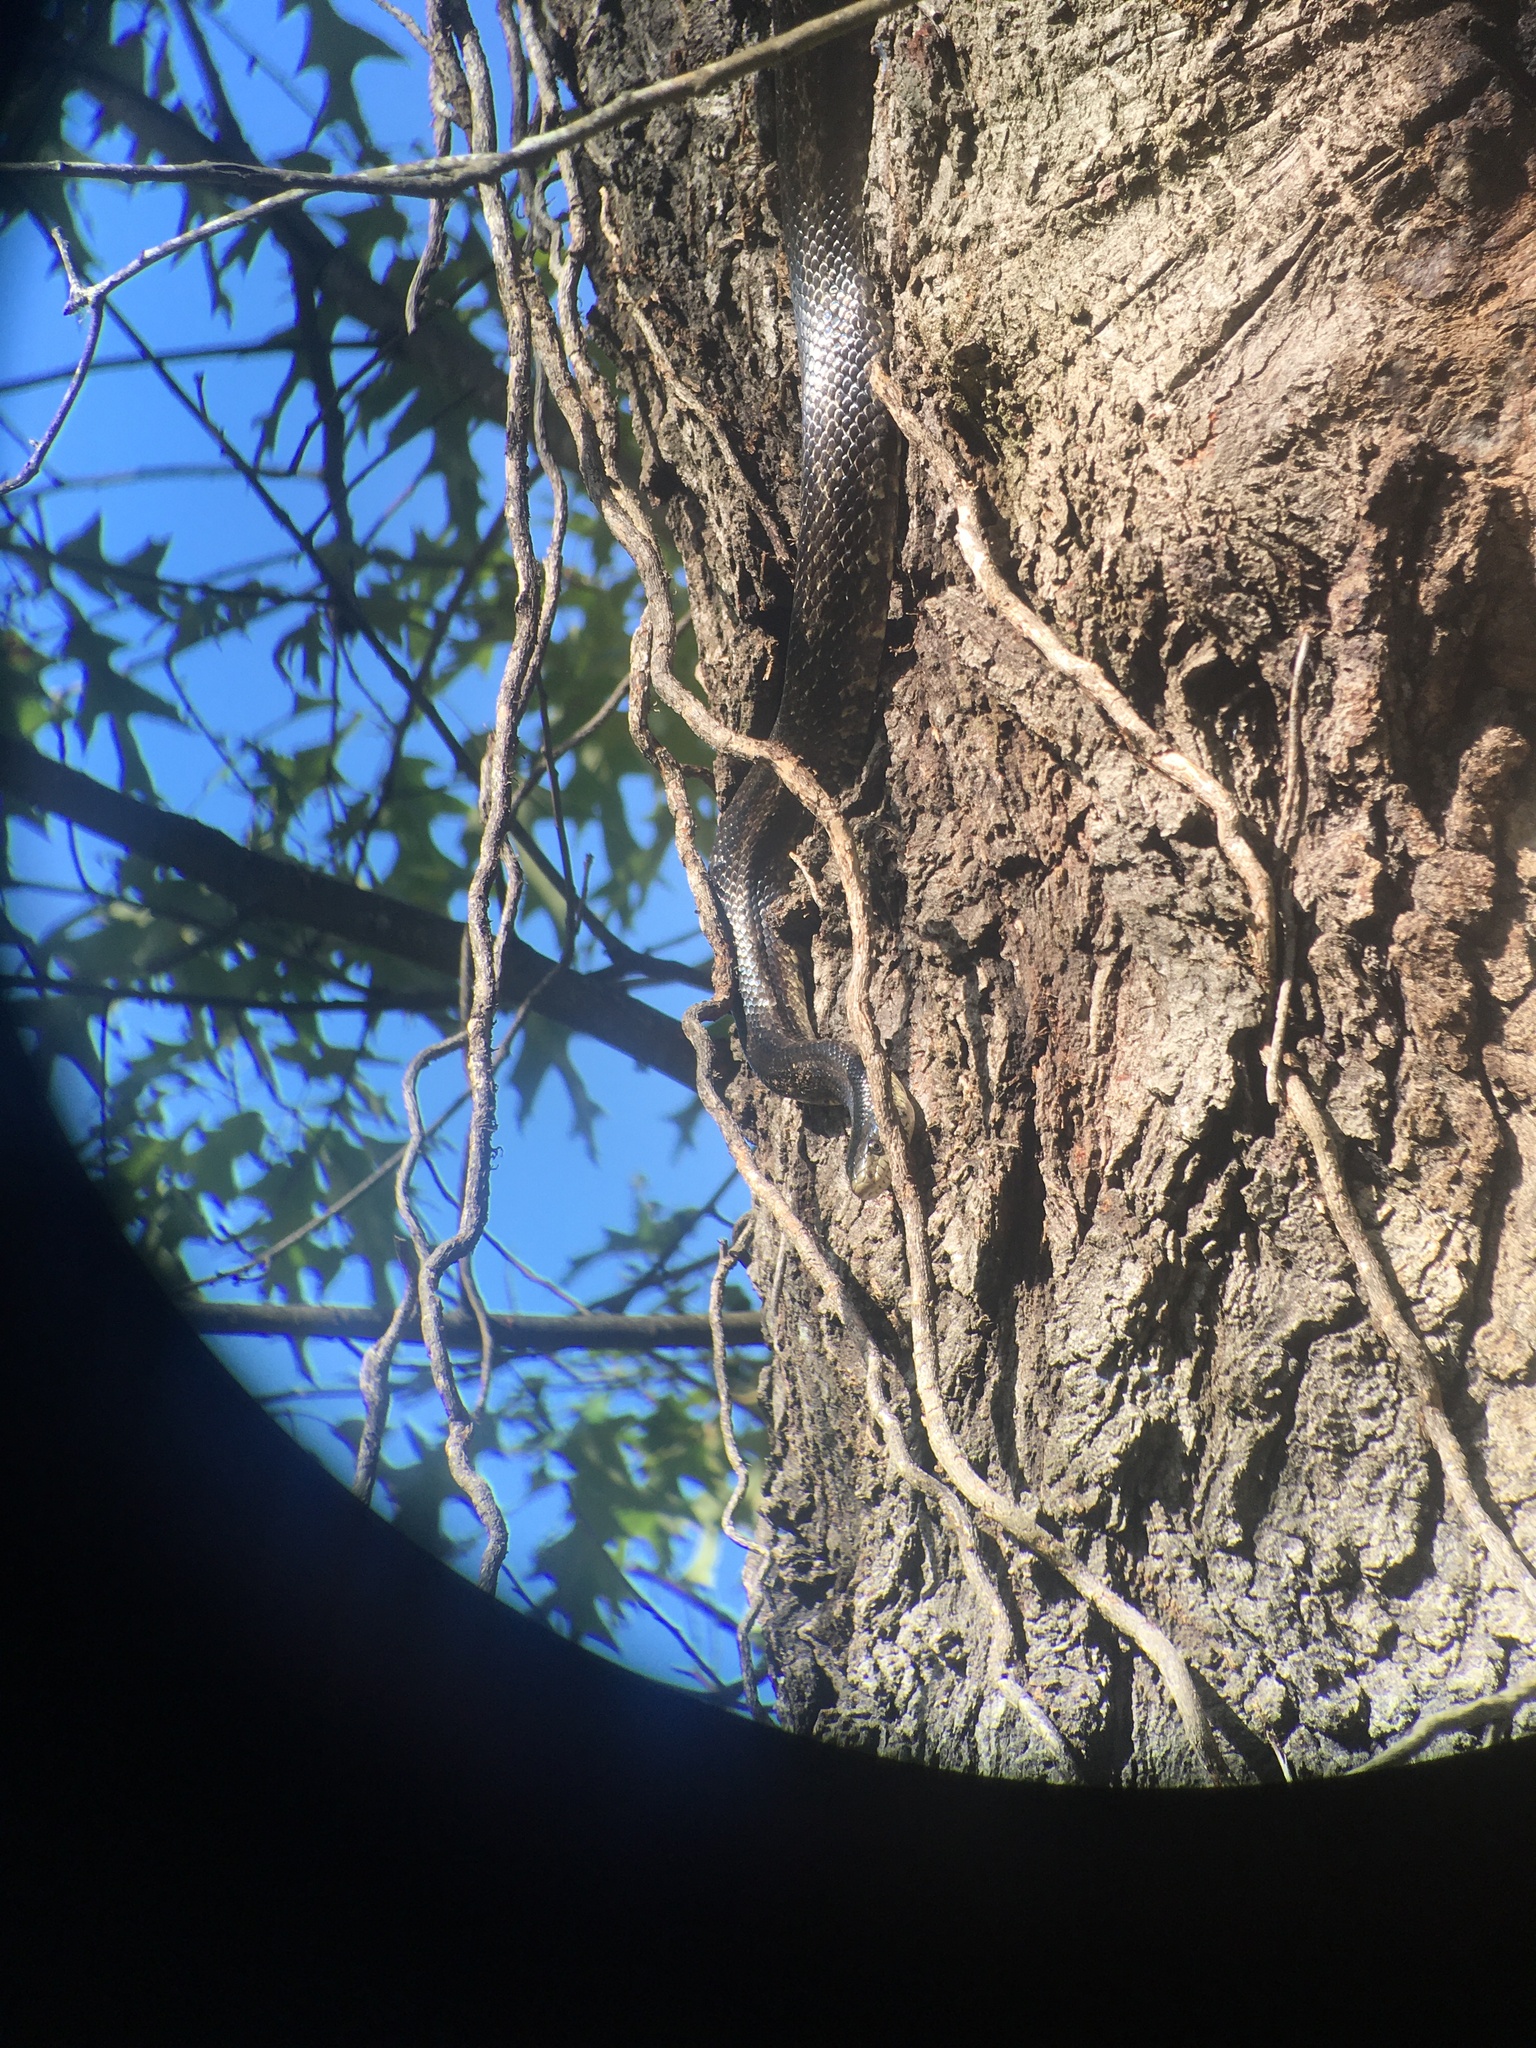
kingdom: Animalia
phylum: Chordata
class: Squamata
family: Colubridae
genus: Pantherophis
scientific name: Pantherophis alleghaniensis
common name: Eastern rat snake
